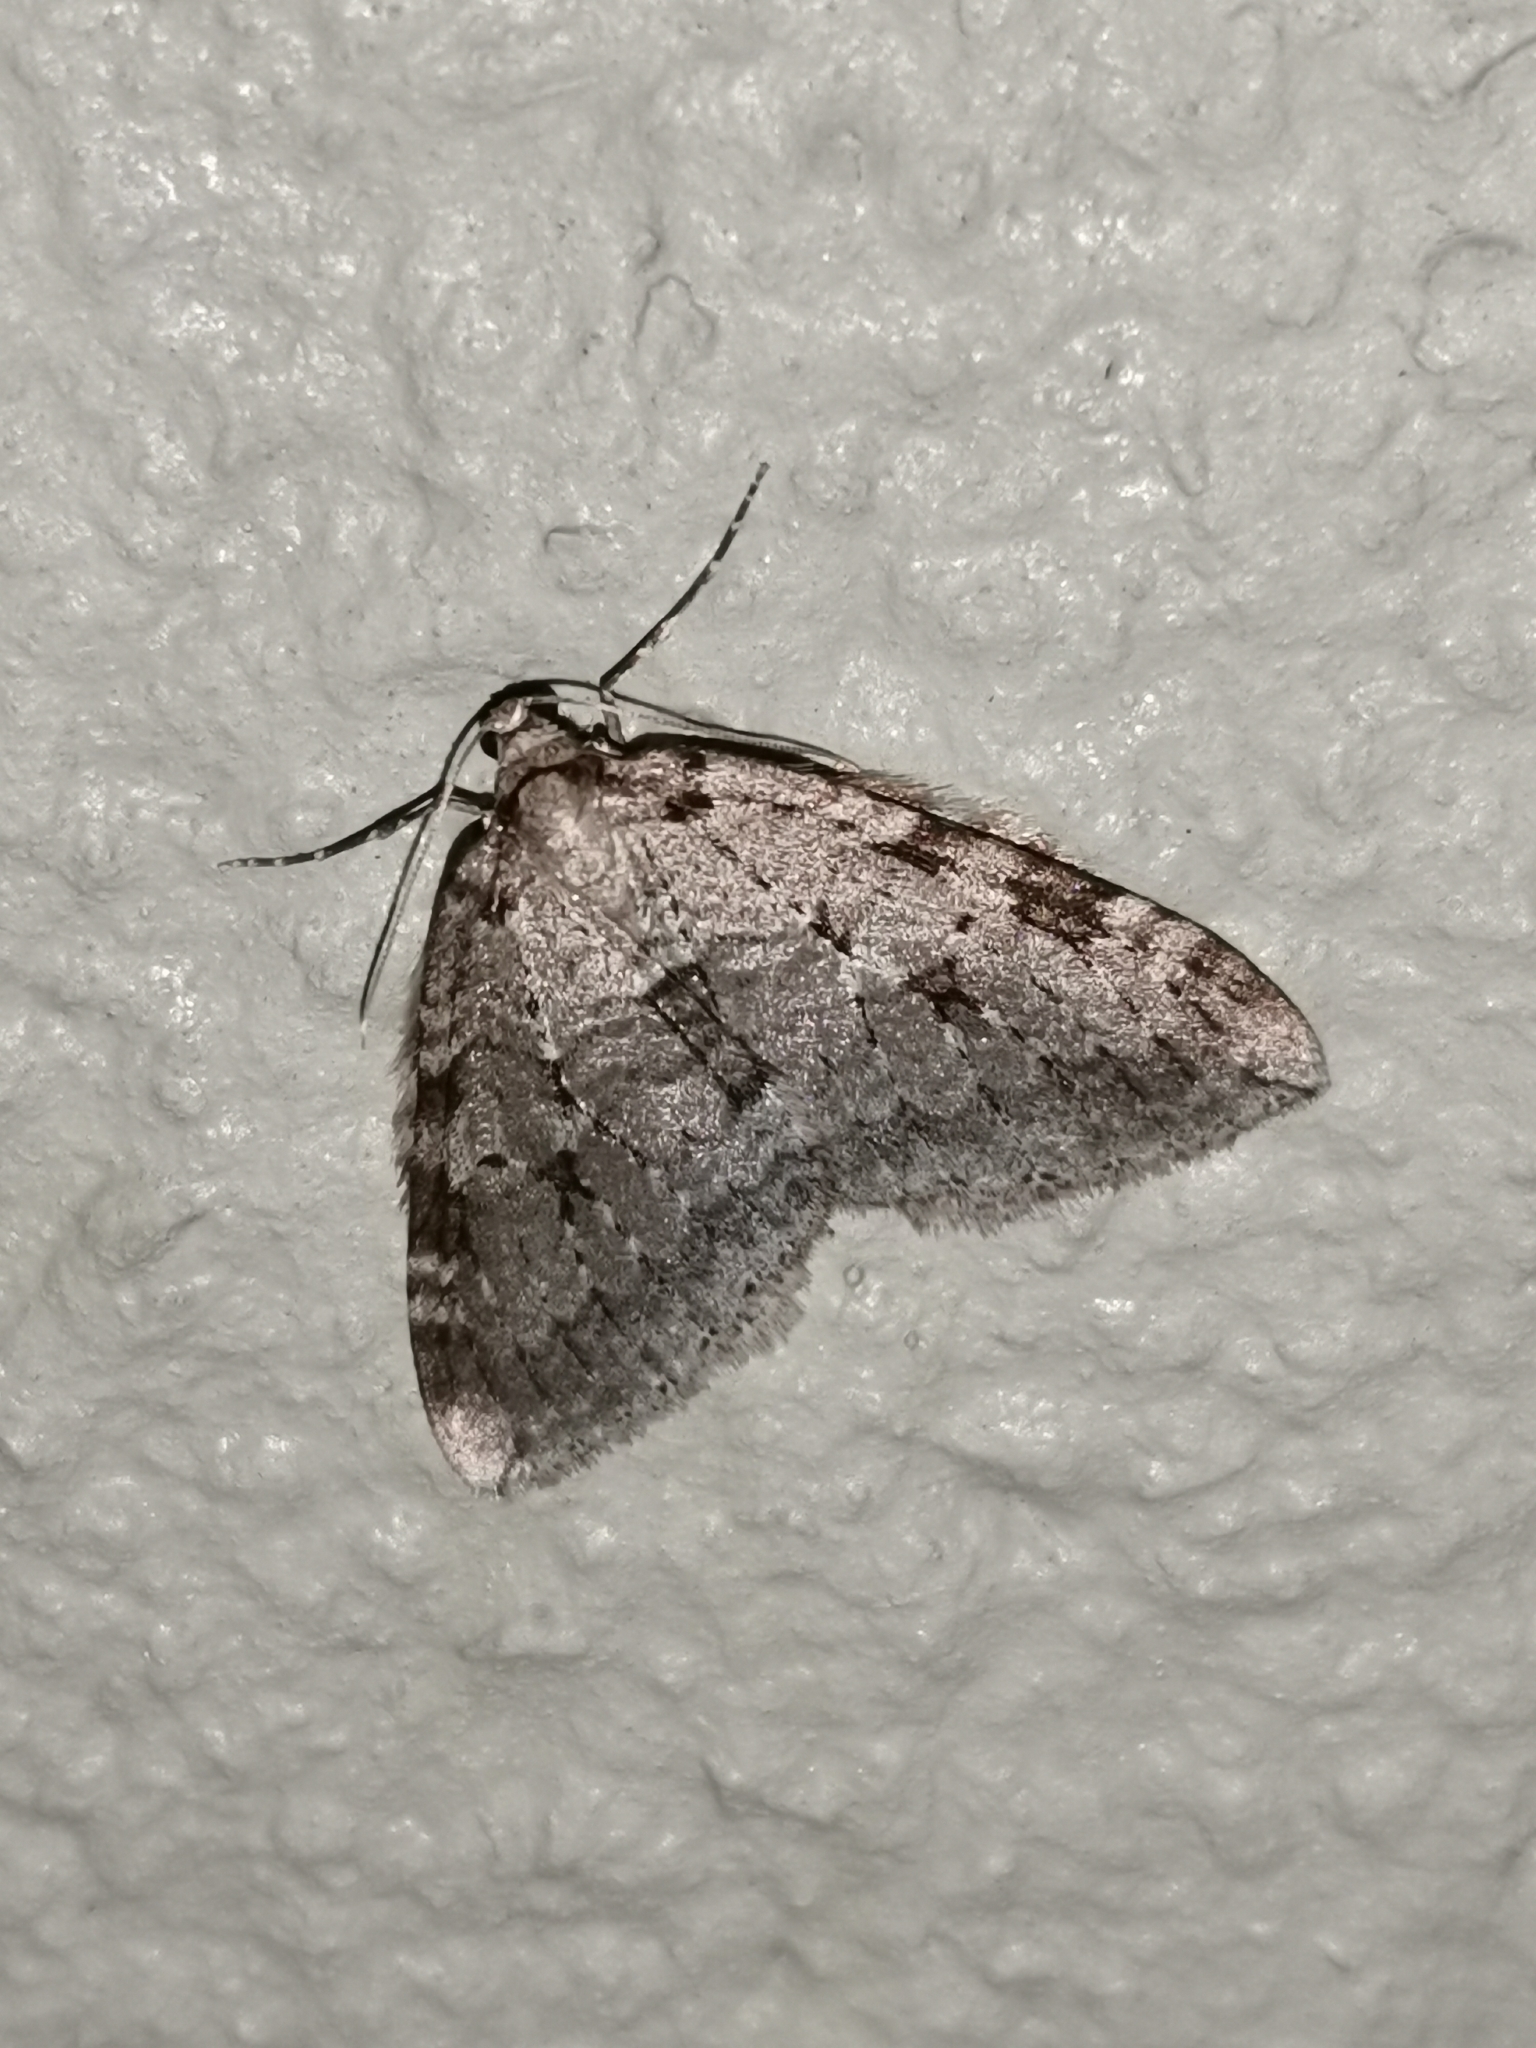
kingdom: Animalia
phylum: Arthropoda
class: Insecta
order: Lepidoptera
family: Geometridae
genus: Epirrita
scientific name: Epirrita autumnata
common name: Autumnal moth
